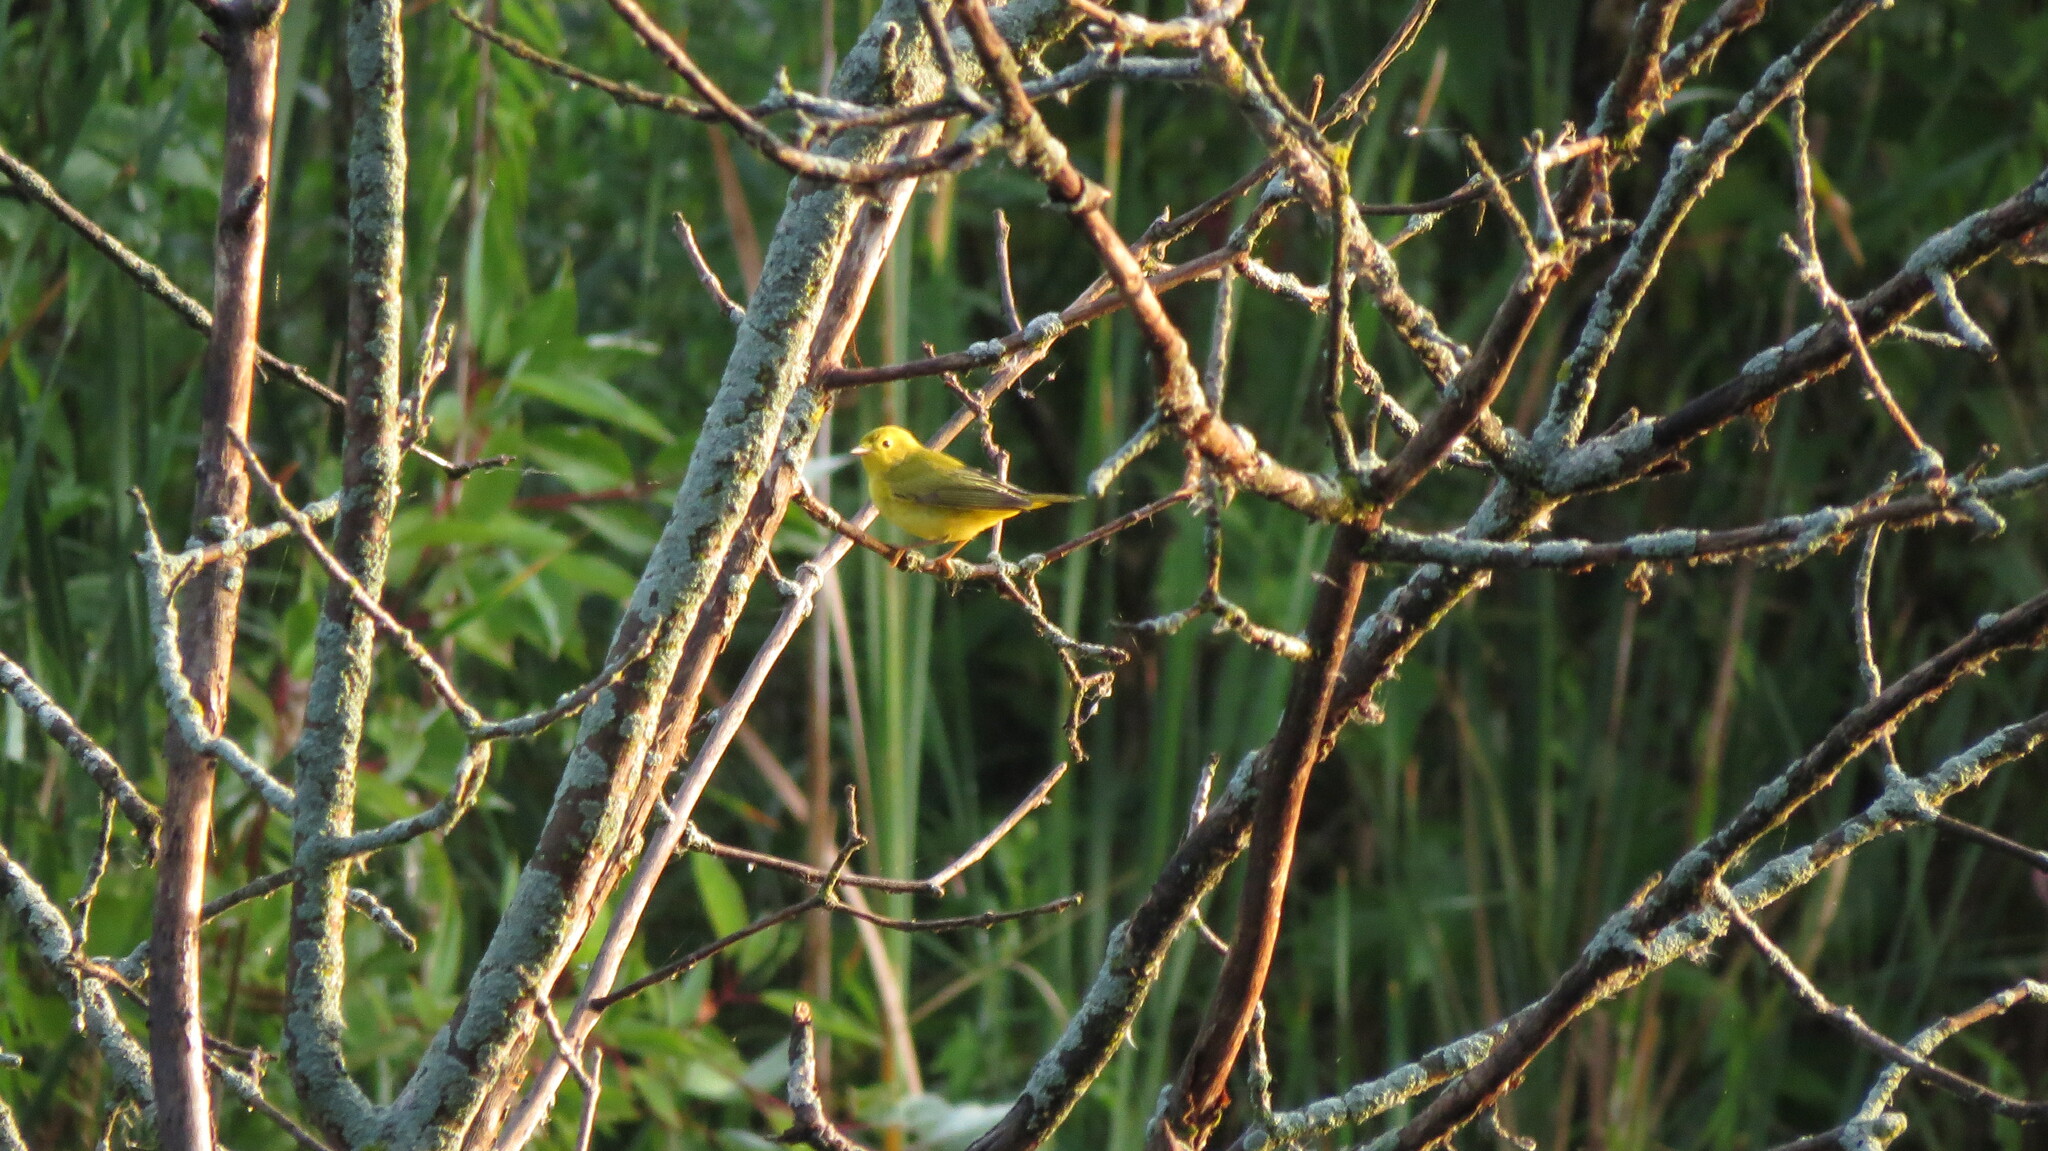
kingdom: Animalia
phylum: Chordata
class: Aves
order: Passeriformes
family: Parulidae
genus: Setophaga
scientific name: Setophaga petechia
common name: Yellow warbler
